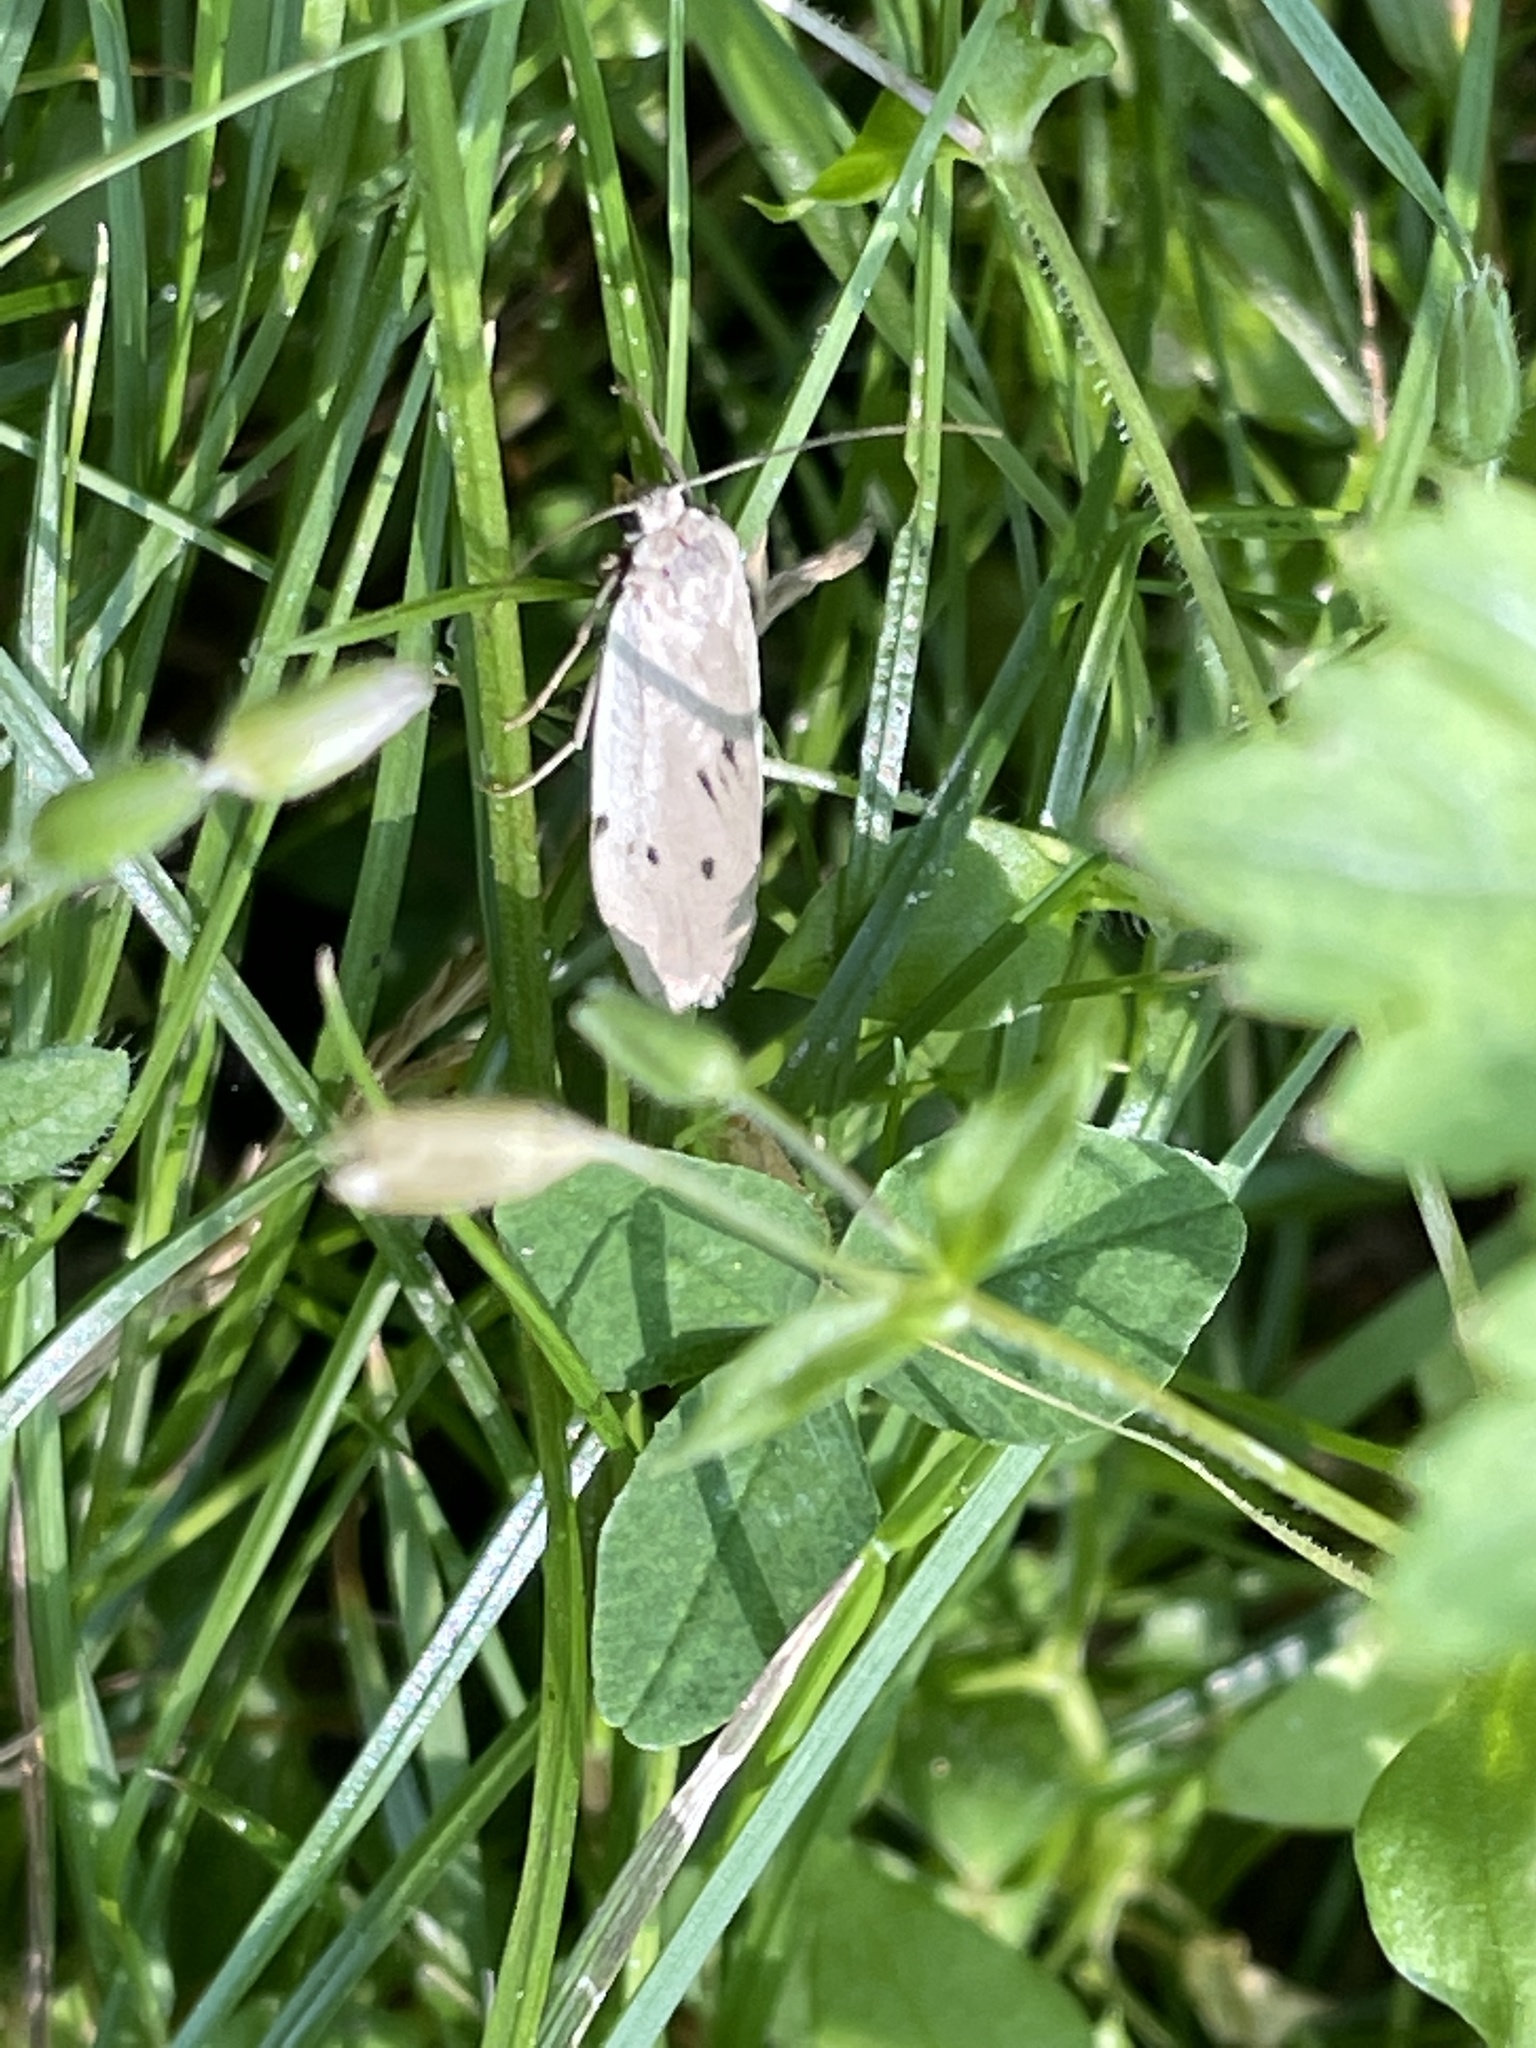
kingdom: Animalia
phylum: Arthropoda
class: Insecta
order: Lepidoptera
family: Erebidae
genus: Pelosia
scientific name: Pelosia muscerda
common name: Dotted footman
